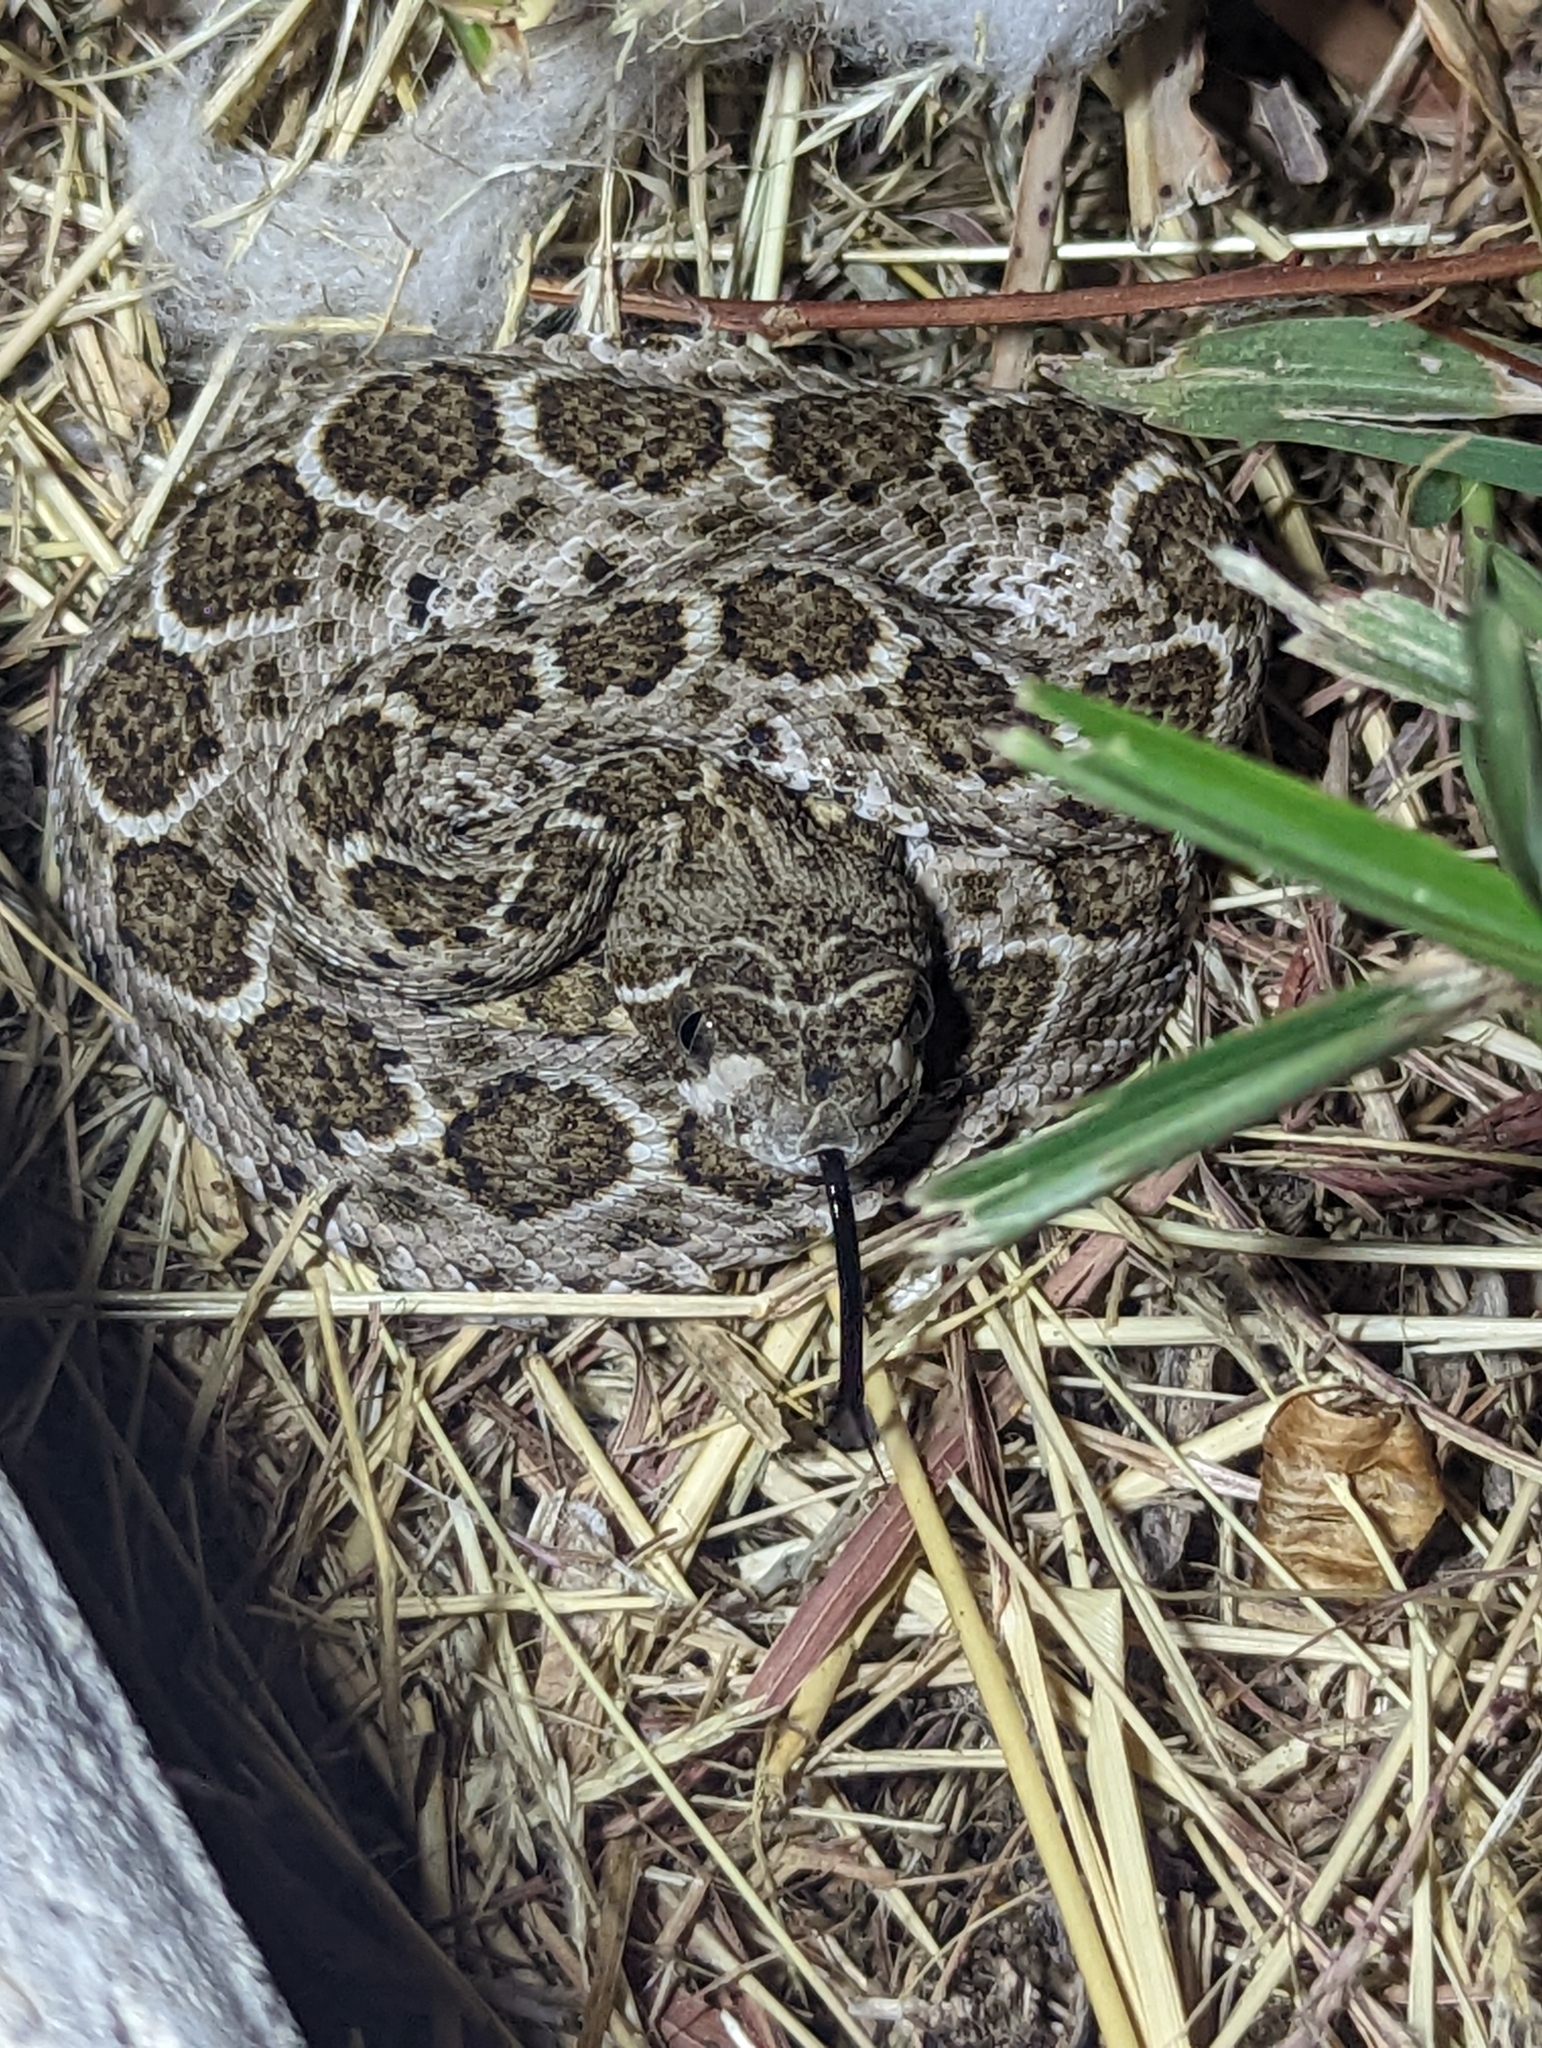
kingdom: Animalia
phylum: Chordata
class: Squamata
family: Viperidae
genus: Crotalus
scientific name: Crotalus atrox
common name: Western diamond-backed rattlesnake
